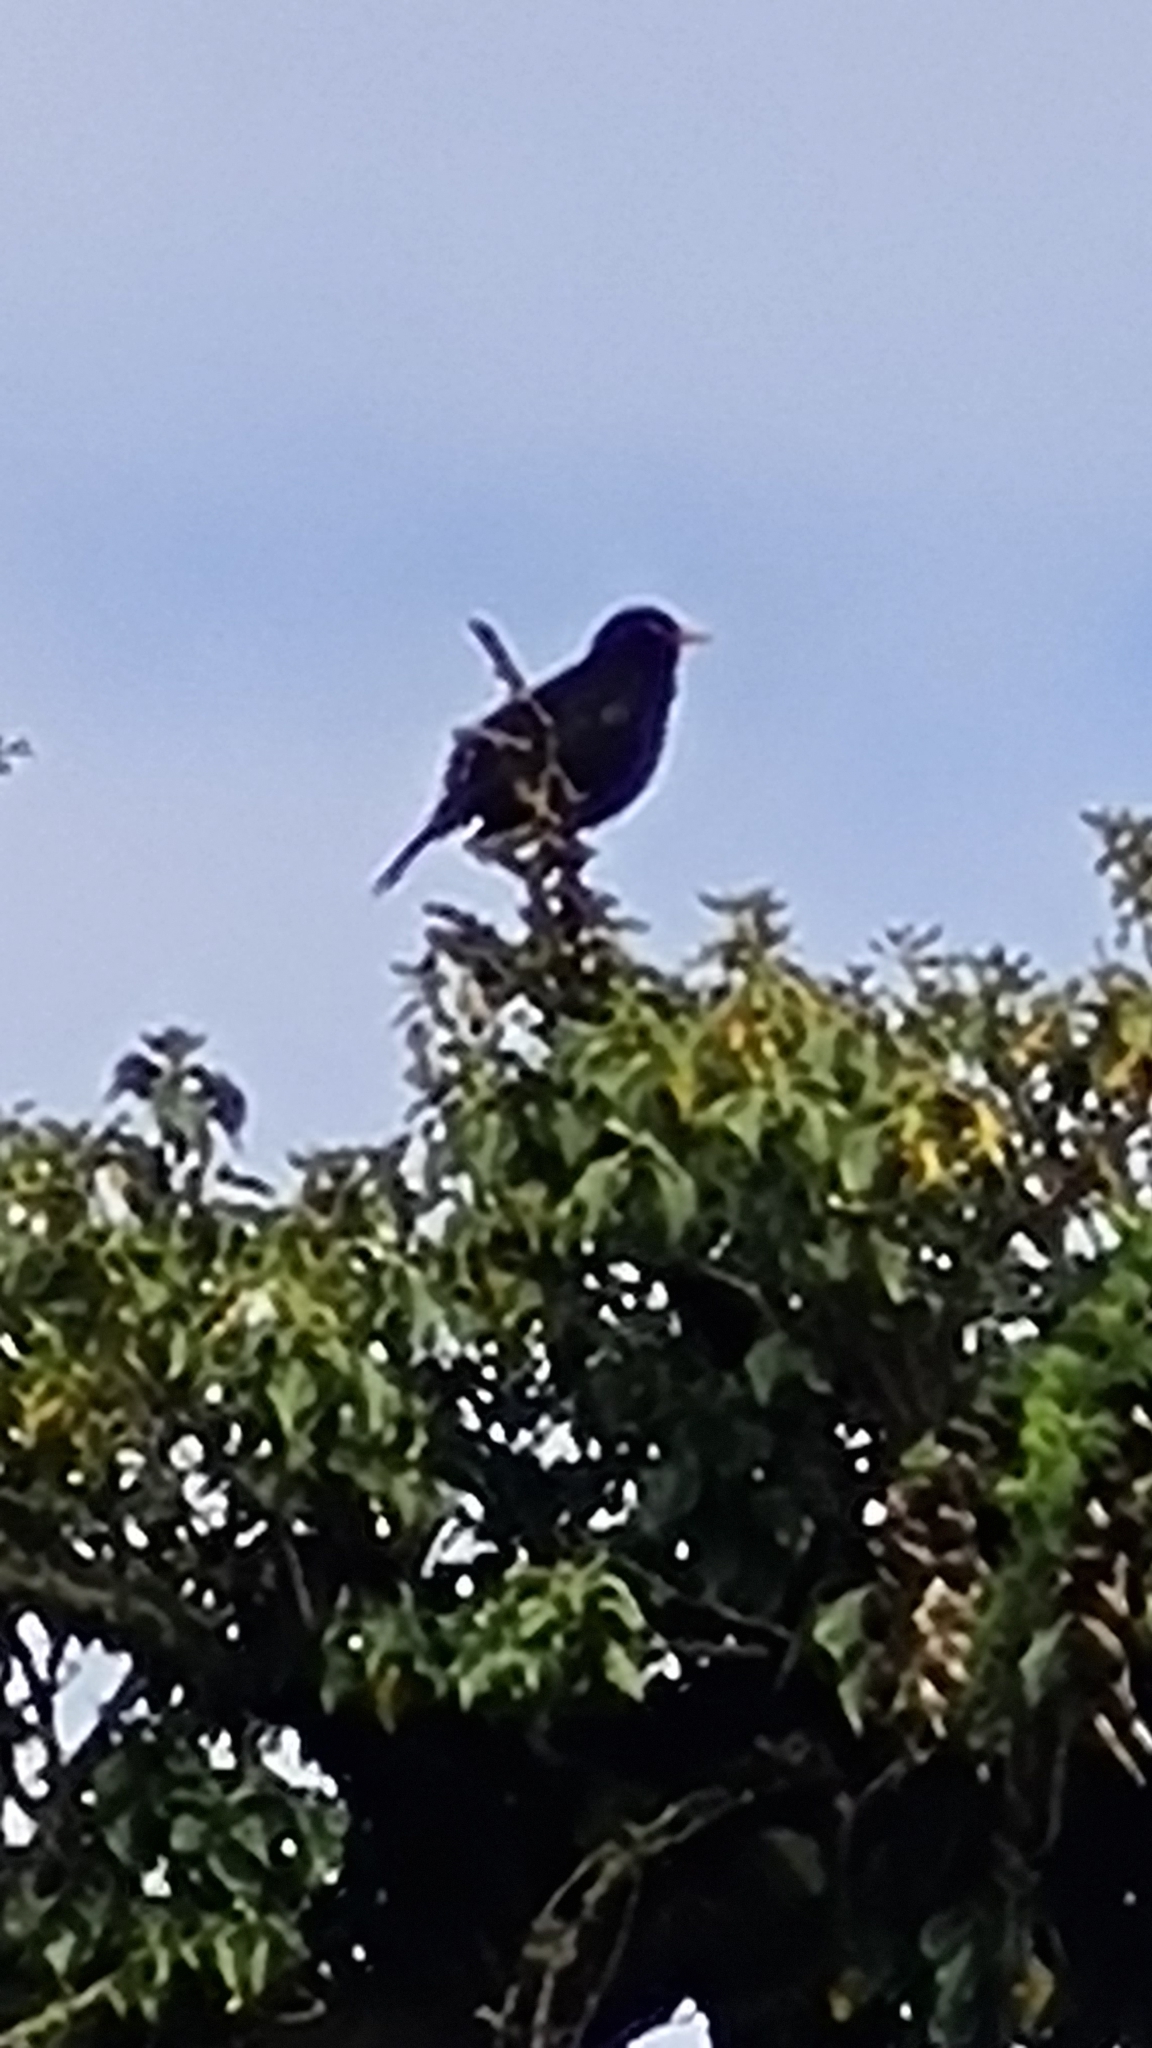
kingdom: Animalia
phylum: Chordata
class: Aves
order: Passeriformes
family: Turdidae
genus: Turdus
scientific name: Turdus merula
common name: Common blackbird
